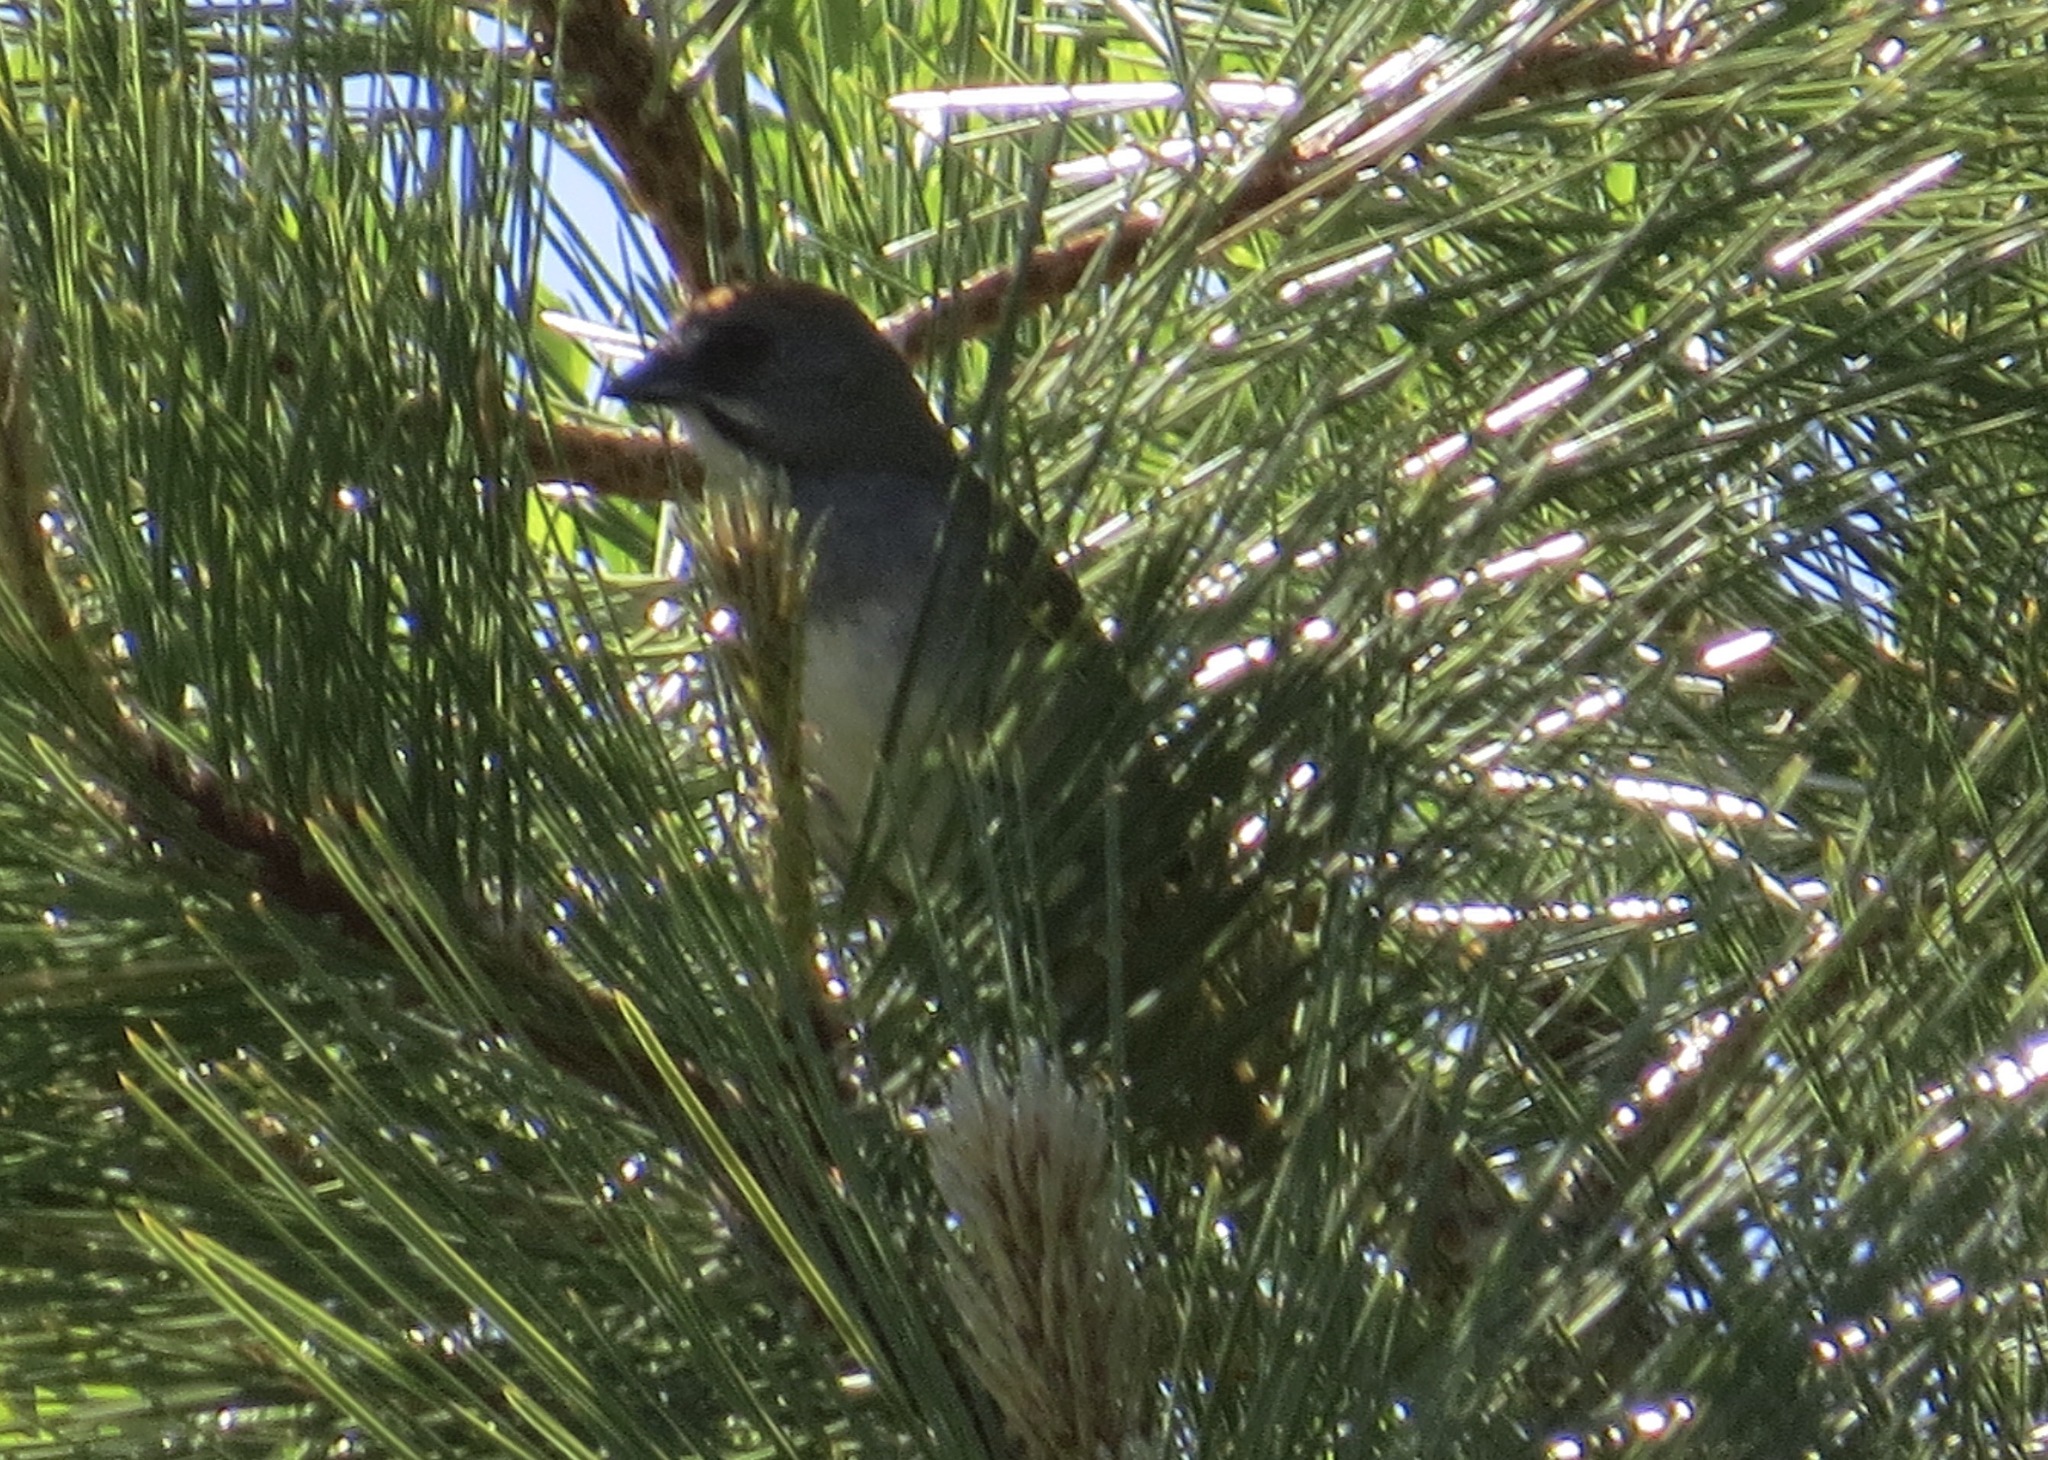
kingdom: Animalia
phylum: Chordata
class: Aves
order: Passeriformes
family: Passerellidae
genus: Pipilo
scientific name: Pipilo chlorurus
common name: Green-tailed towhee
